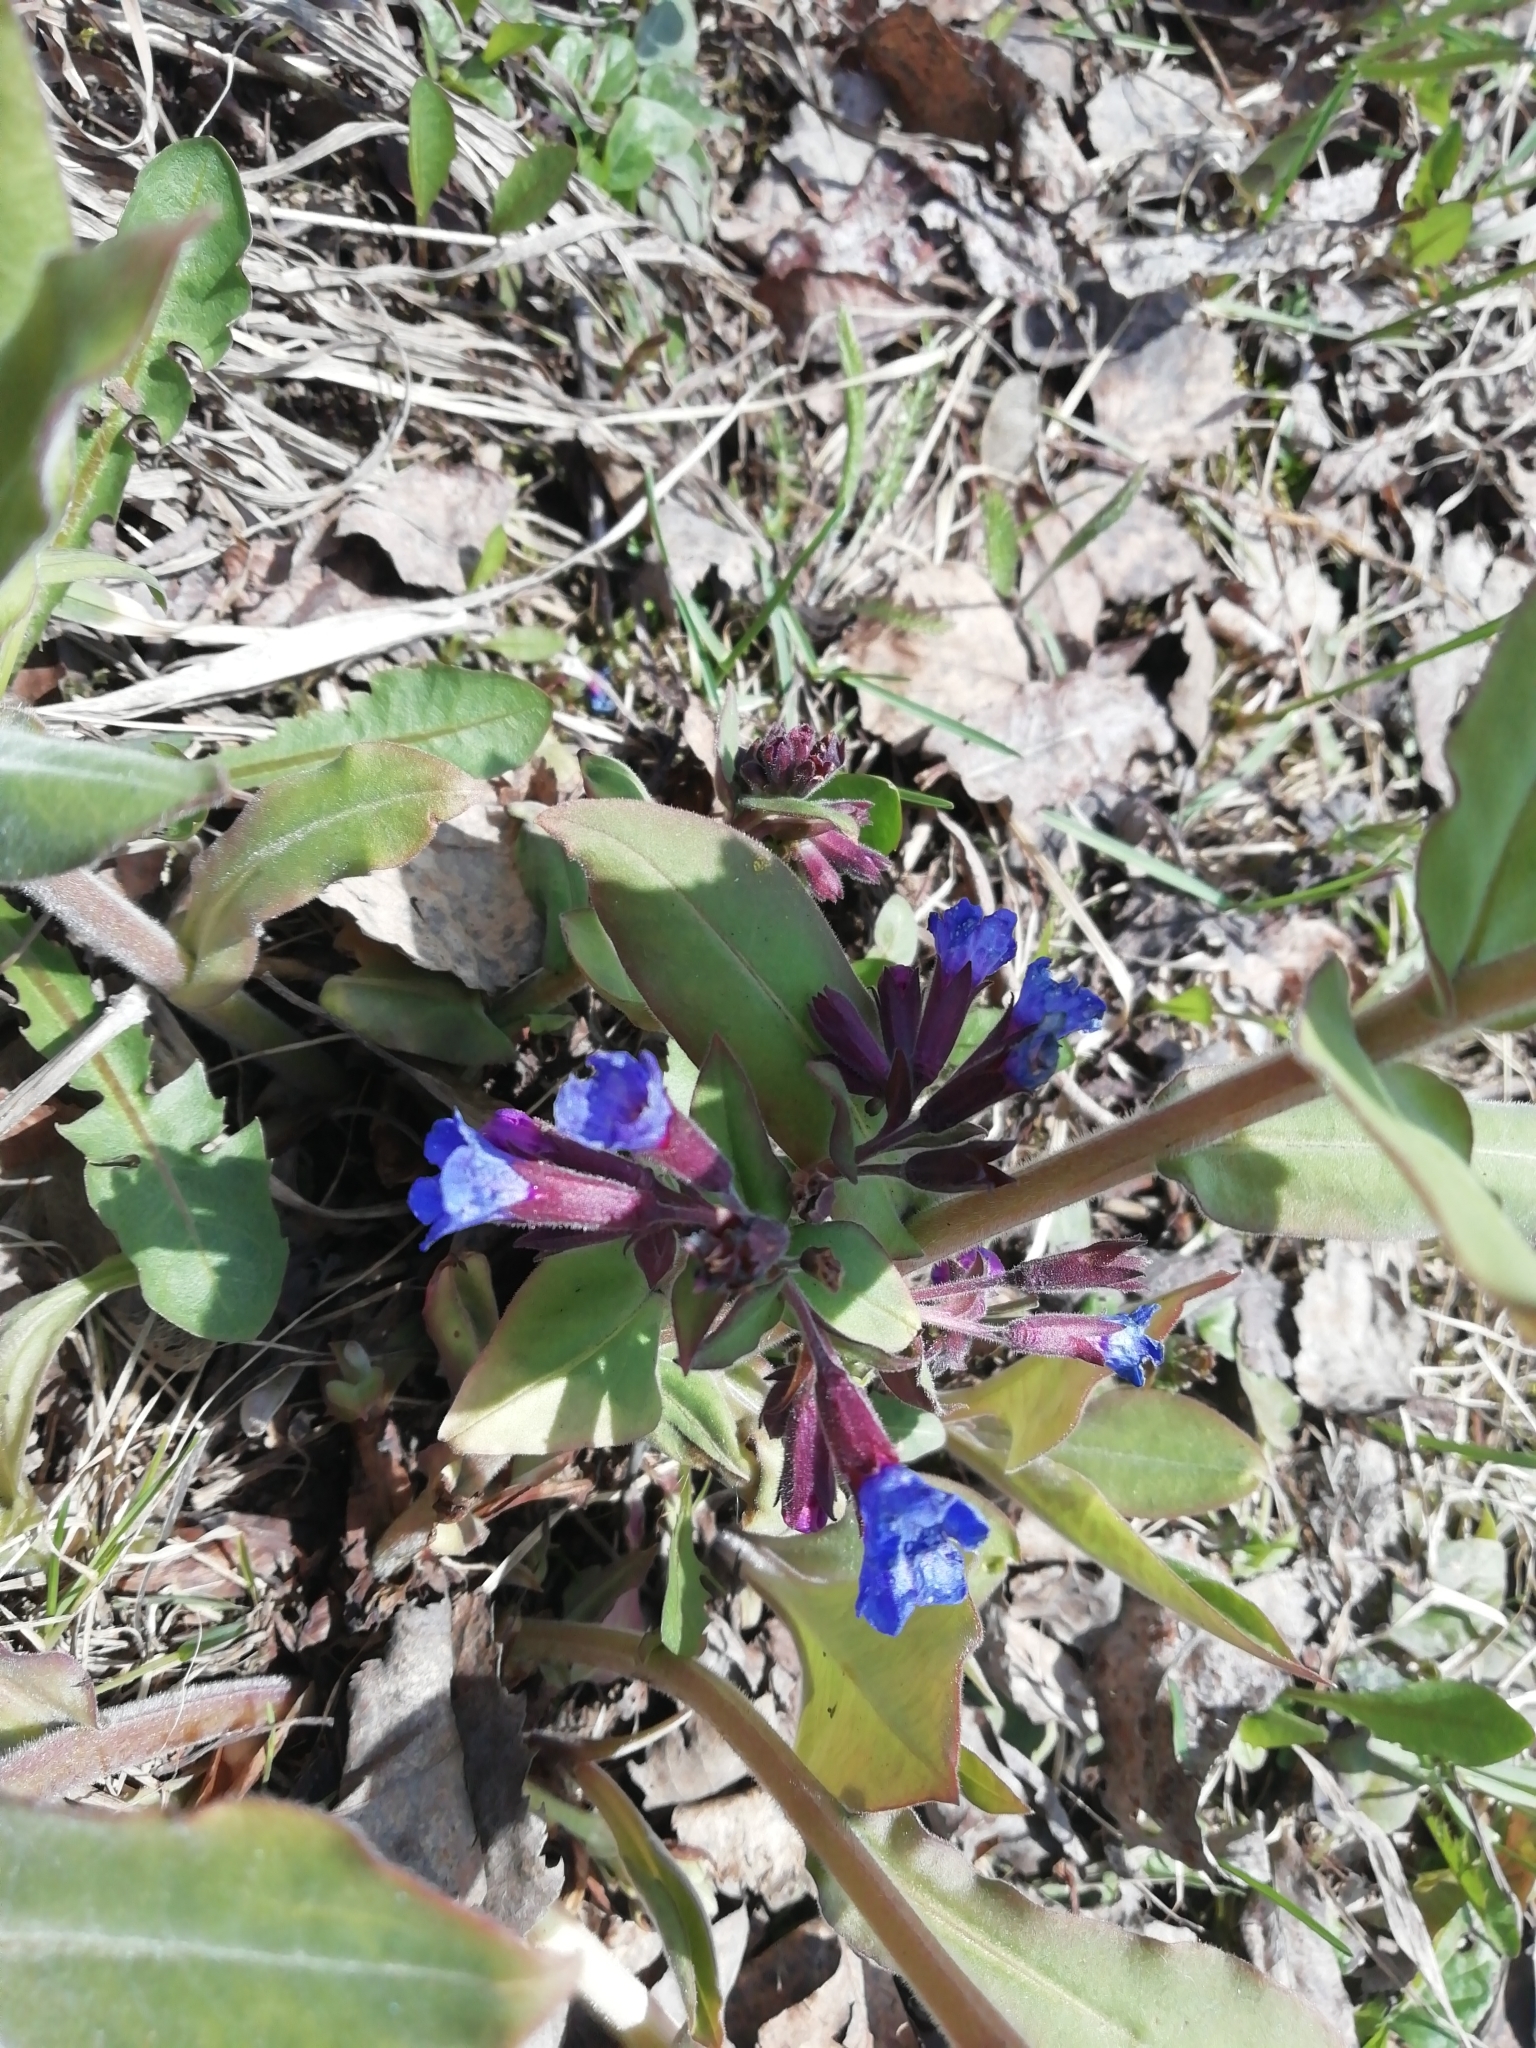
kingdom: Plantae
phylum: Tracheophyta
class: Magnoliopsida
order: Boraginales
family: Boraginaceae
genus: Pulmonaria
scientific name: Pulmonaria mollis
